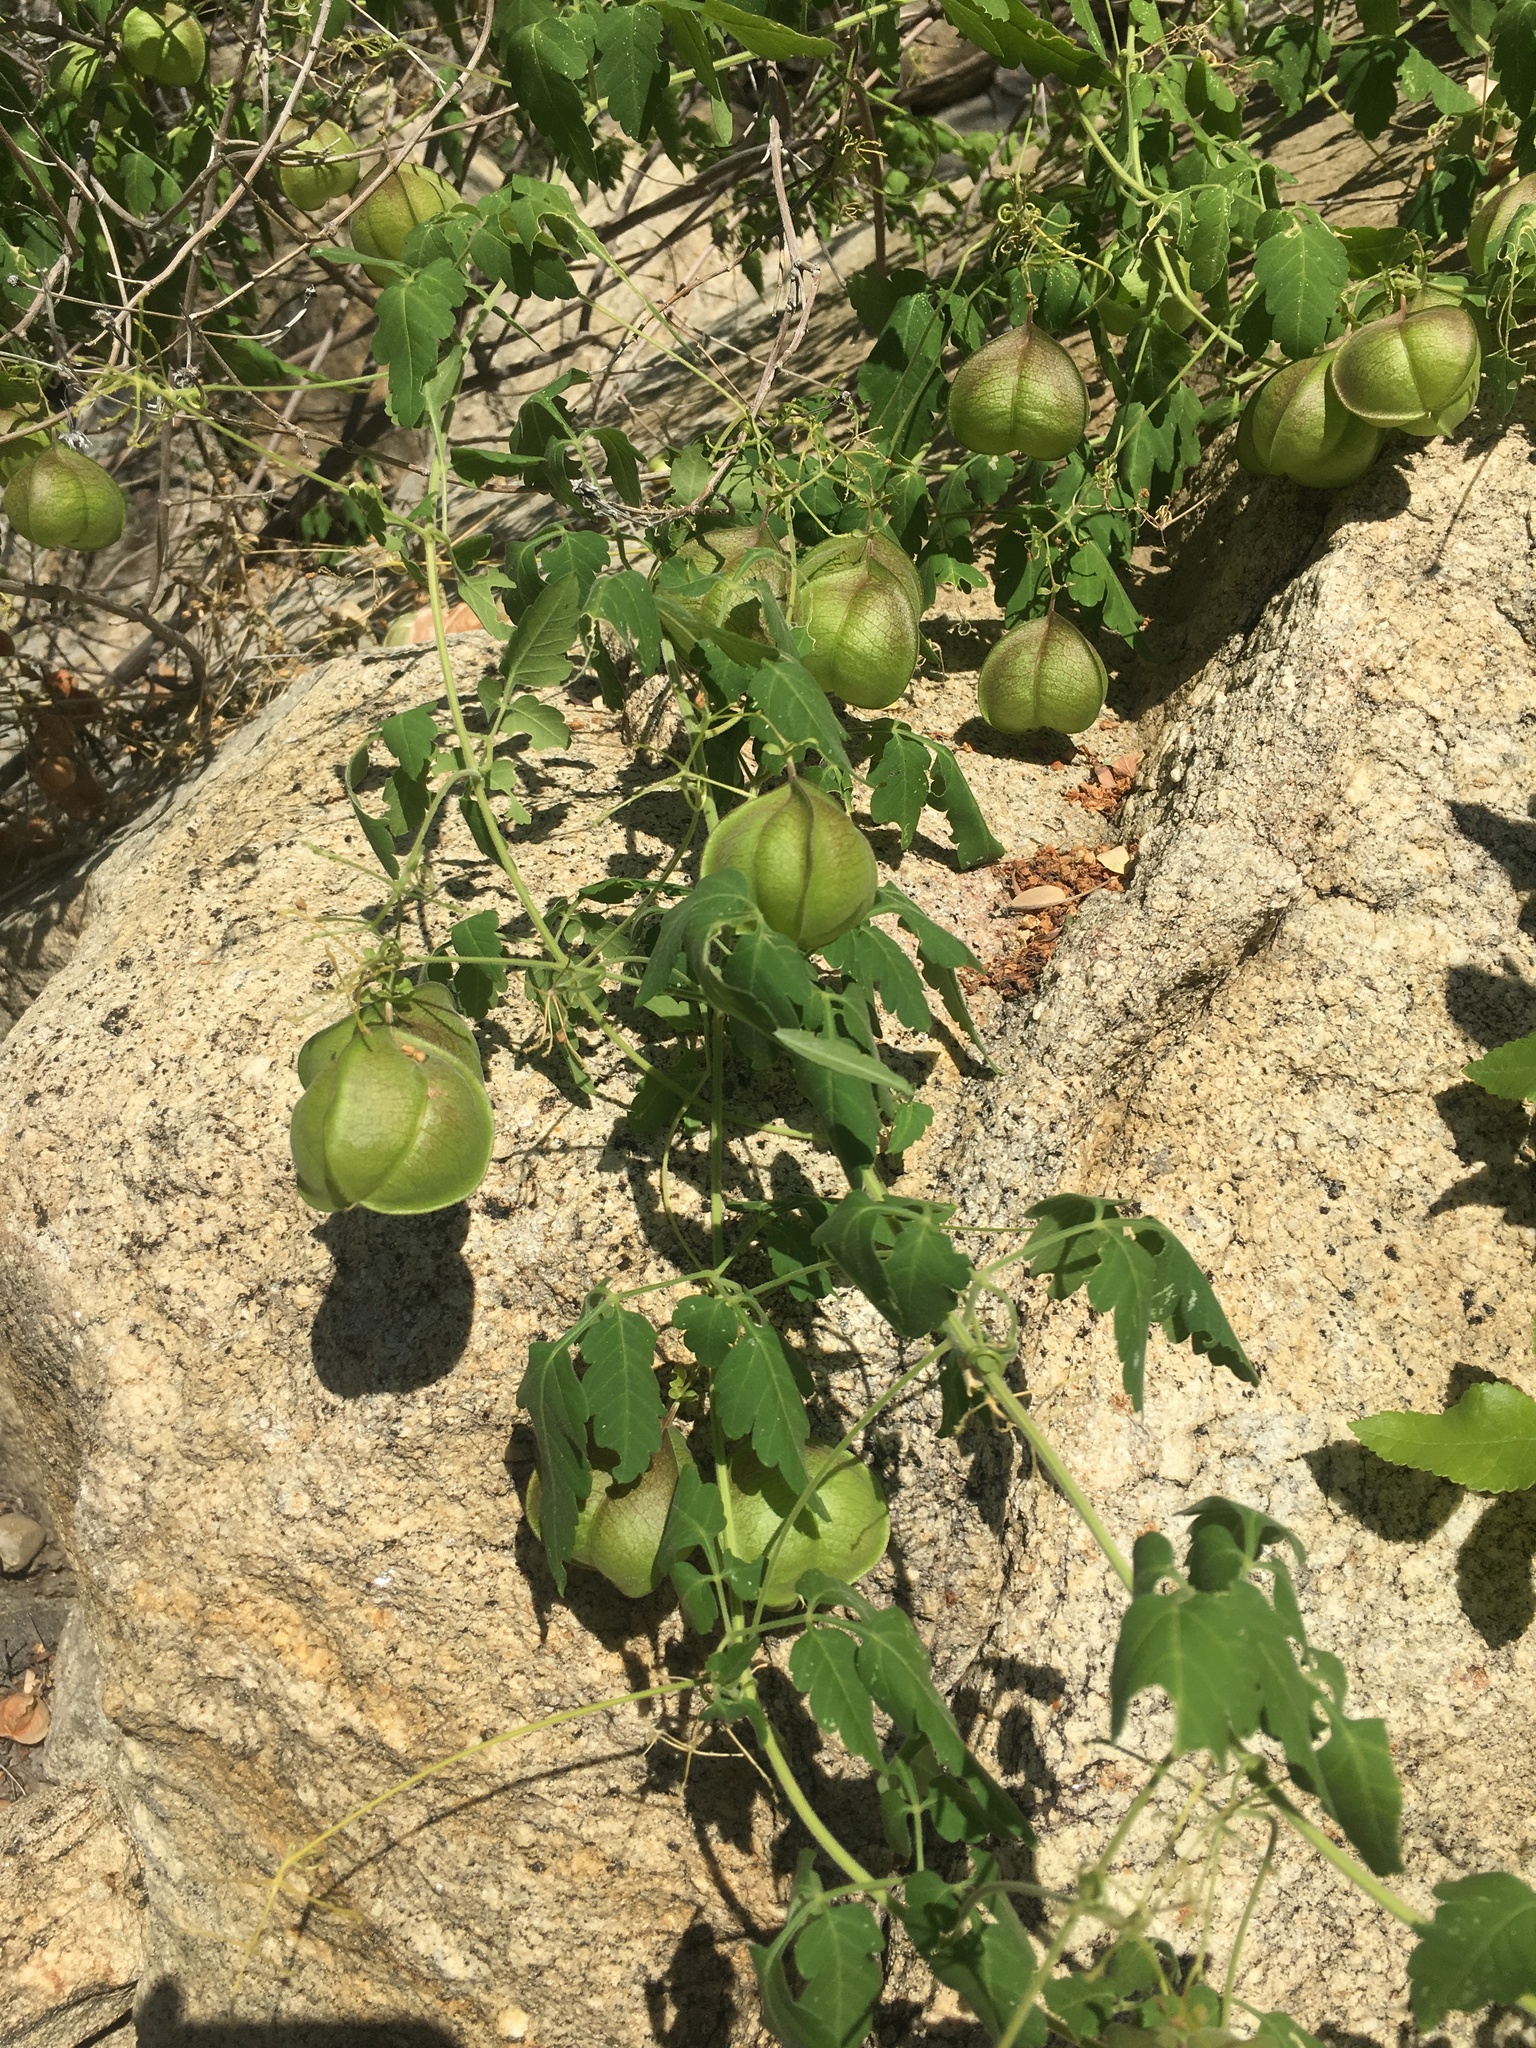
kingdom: Plantae
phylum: Tracheophyta
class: Magnoliopsida
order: Sapindales
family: Sapindaceae
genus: Cardiospermum
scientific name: Cardiospermum corindum
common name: Faux persil
